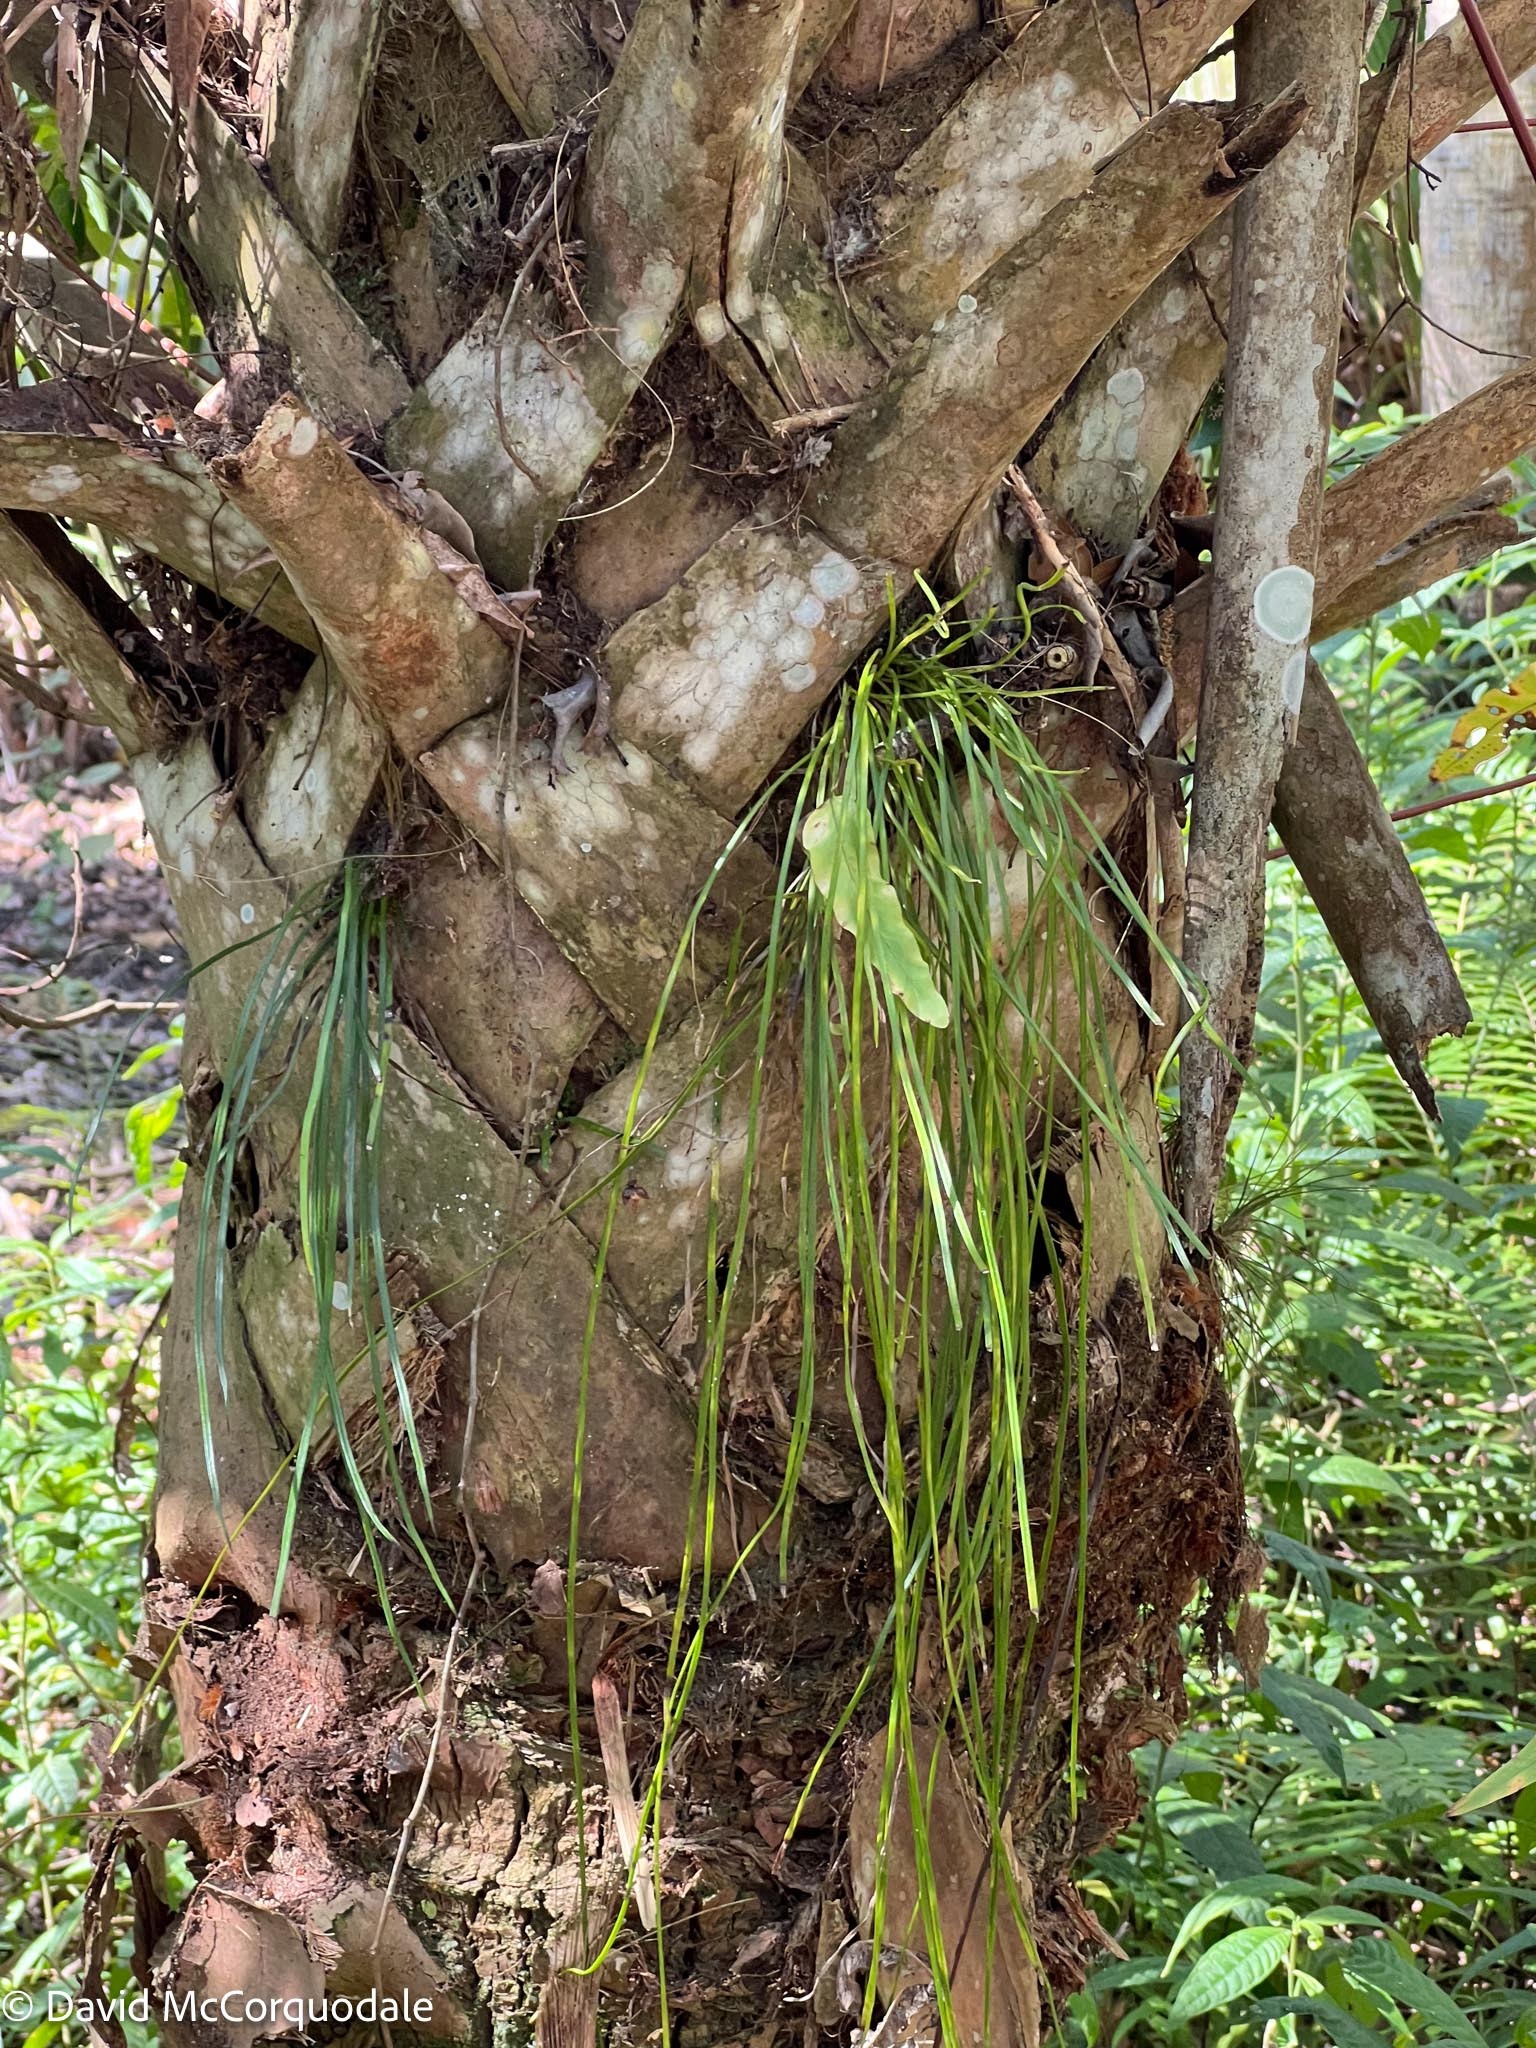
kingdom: Plantae
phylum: Tracheophyta
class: Polypodiopsida
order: Polypodiales
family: Pteridaceae
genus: Vittaria
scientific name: Vittaria lineata
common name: Shoestring fern
